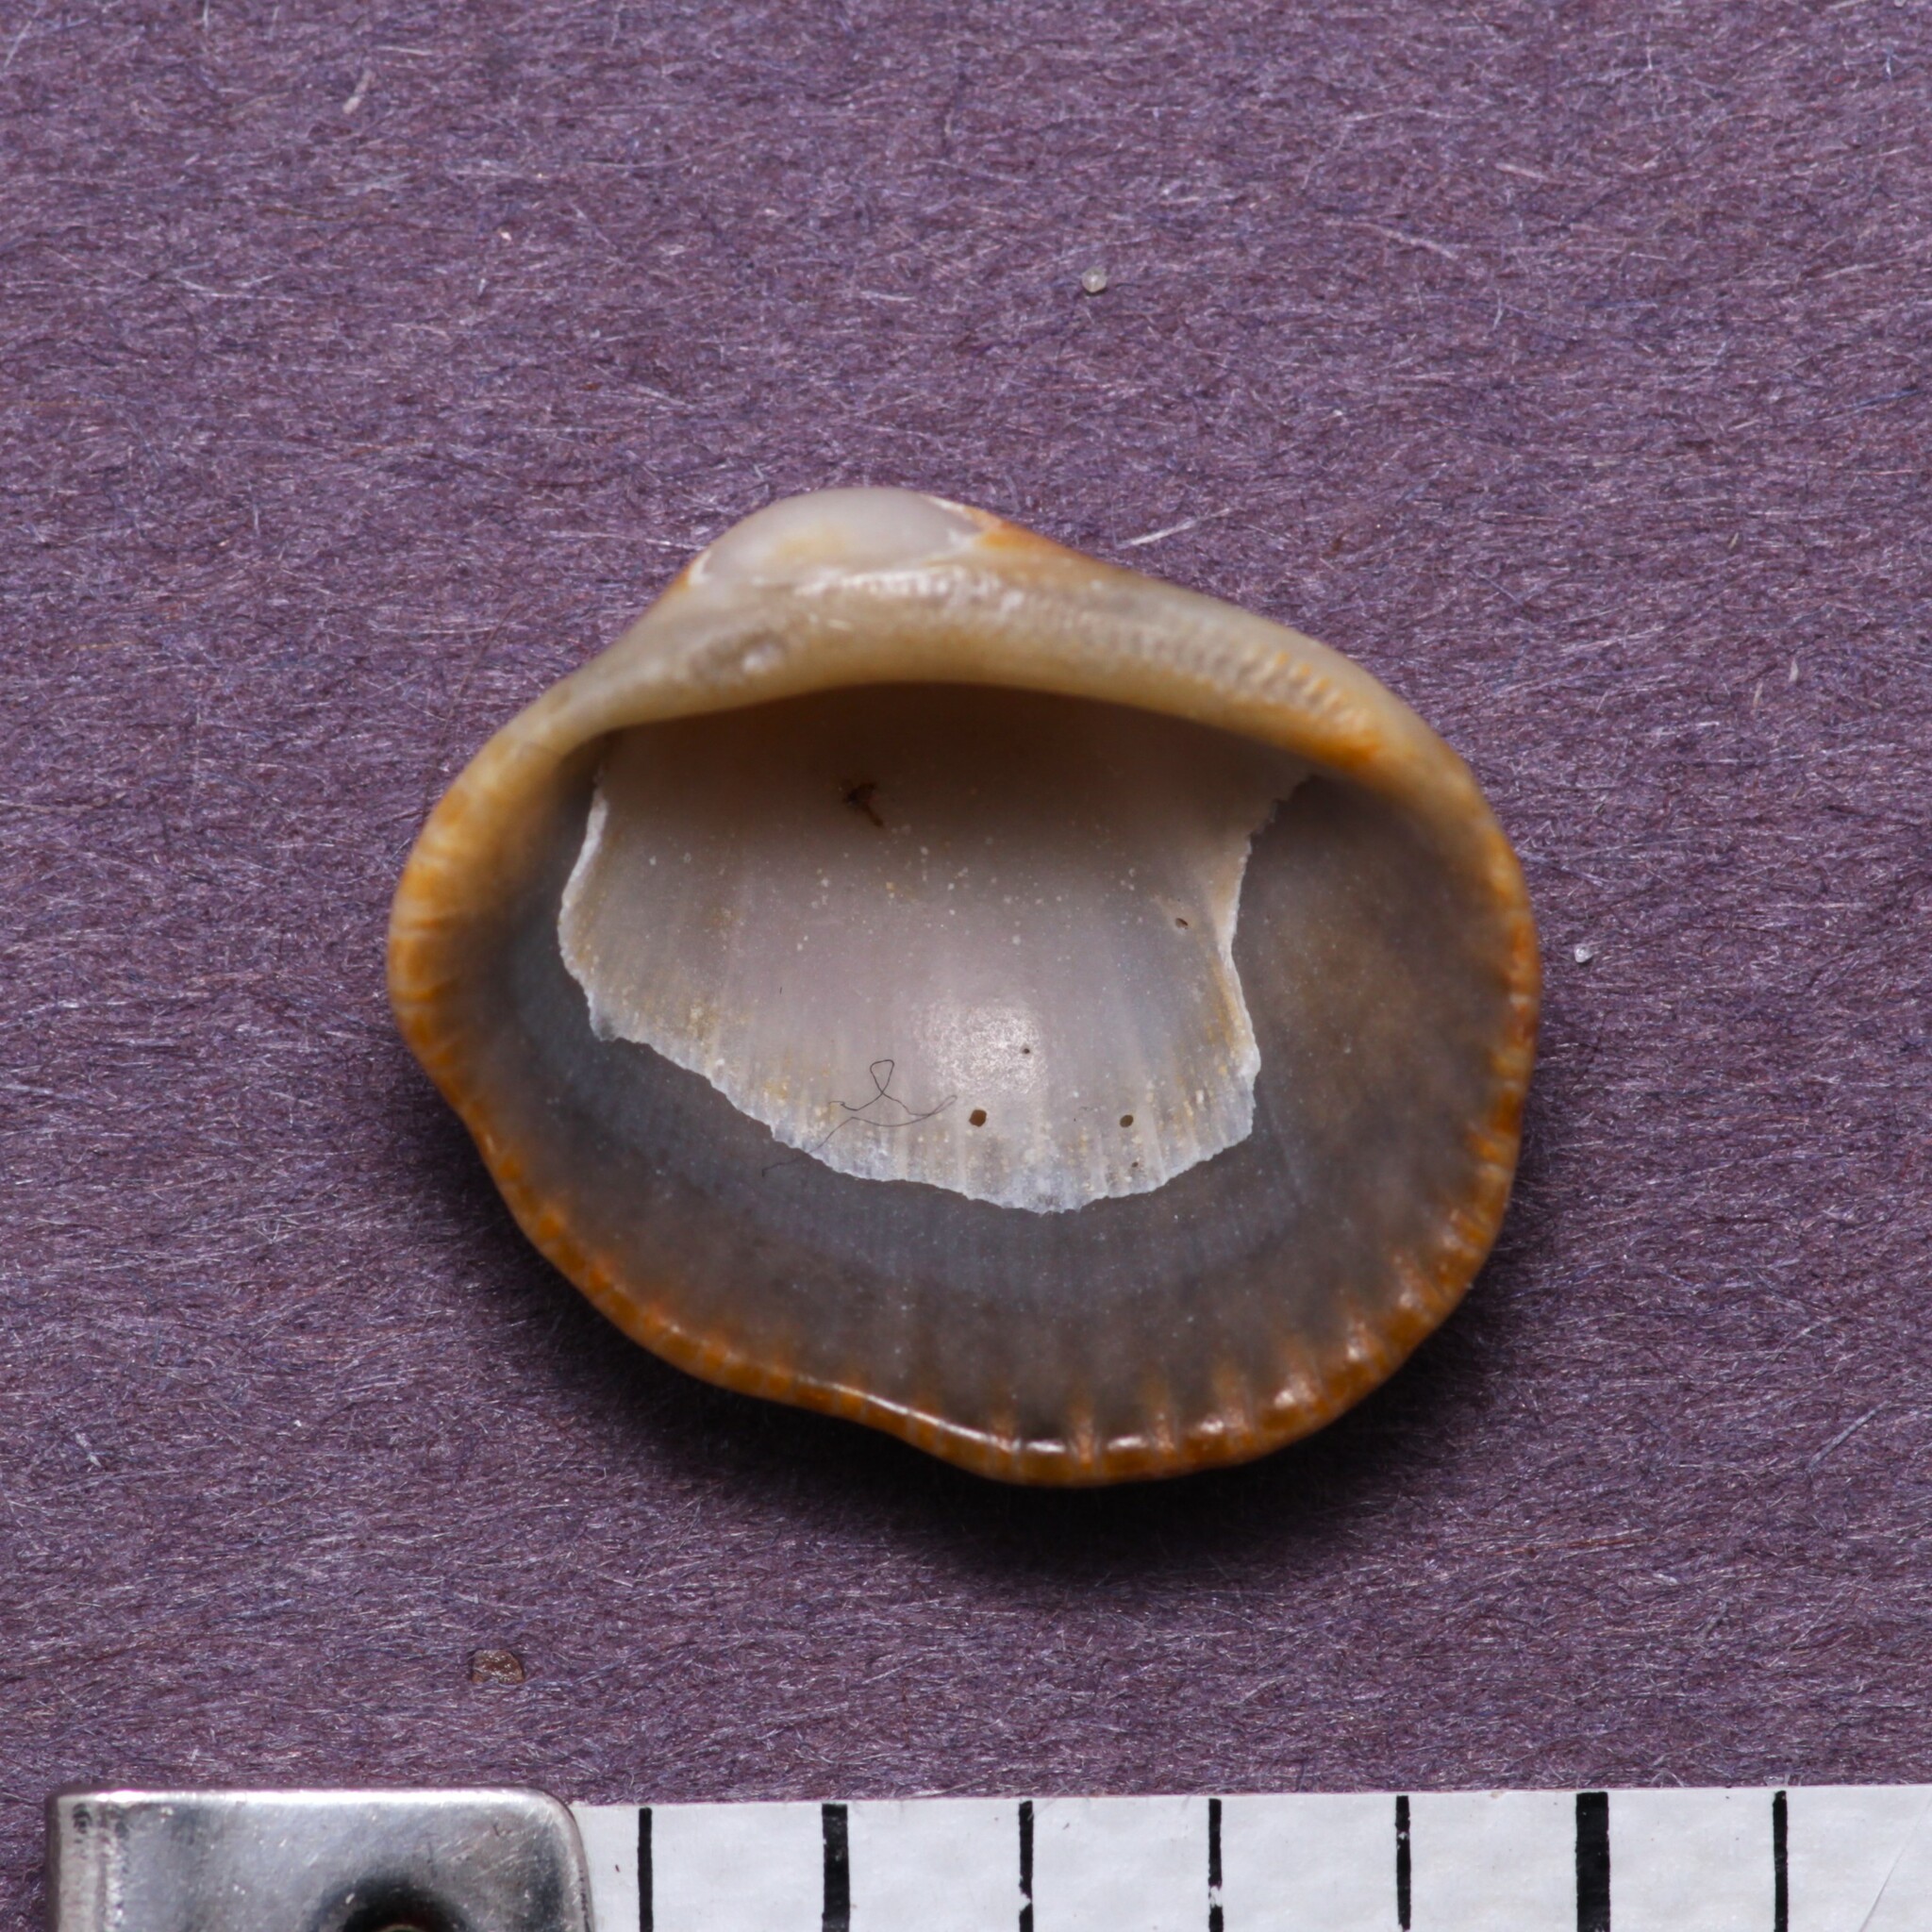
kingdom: Animalia
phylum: Mollusca
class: Bivalvia
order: Arcida
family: Arcidae
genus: Lunarca
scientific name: Lunarca ovalis
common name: Blood ark
